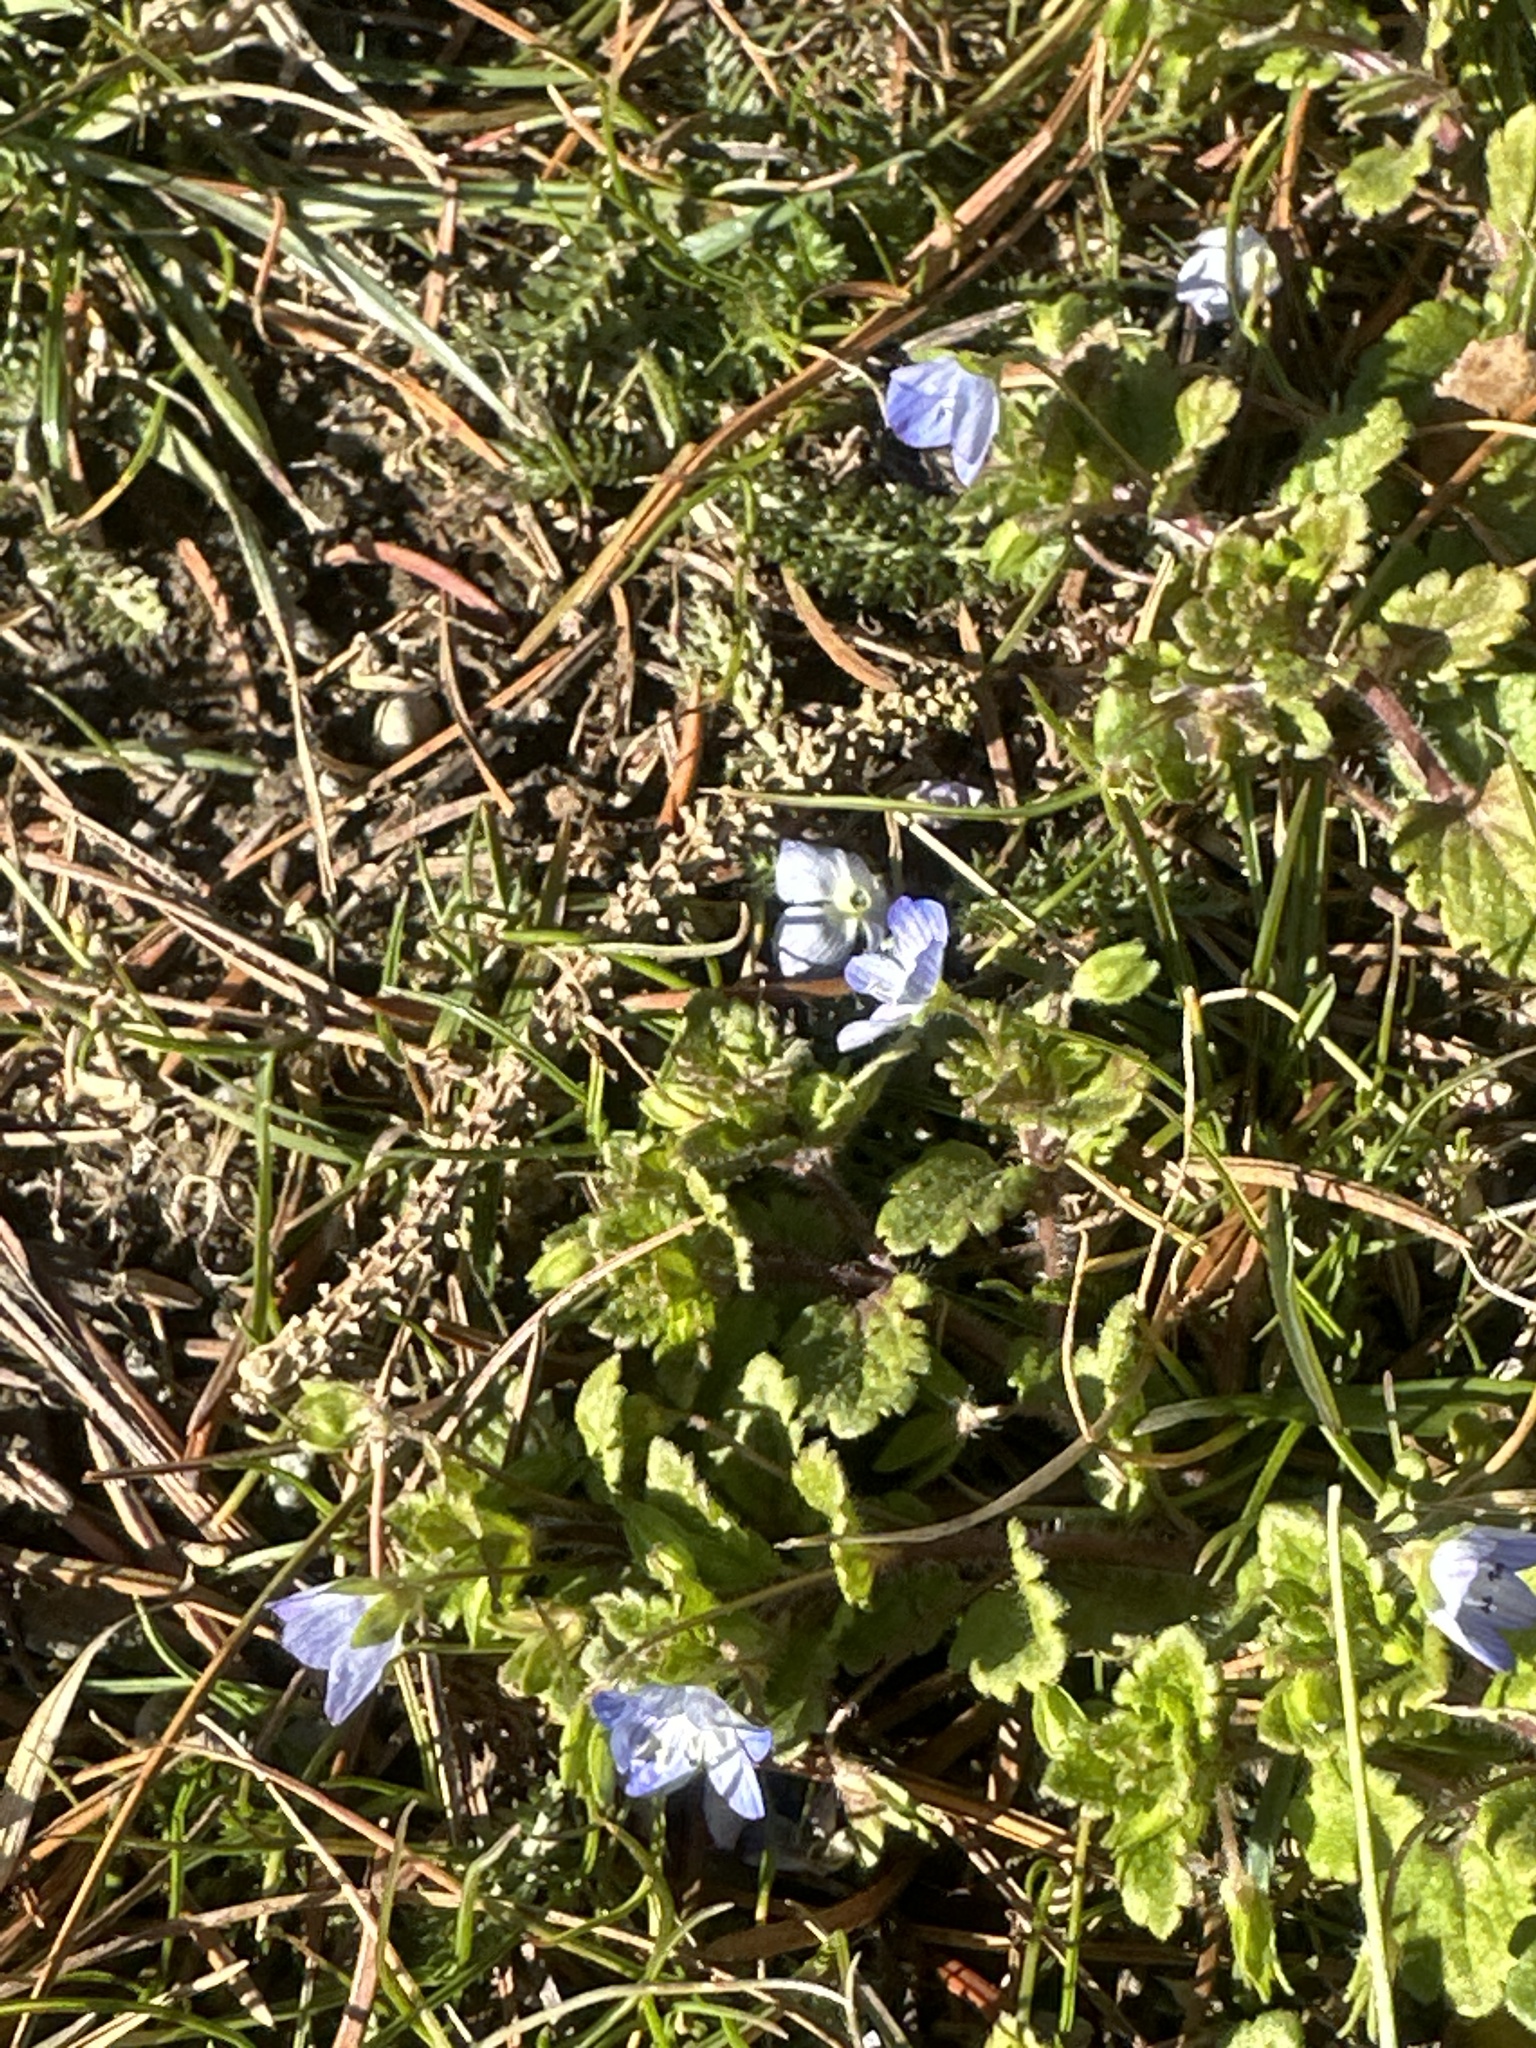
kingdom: Plantae
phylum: Tracheophyta
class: Magnoliopsida
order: Lamiales
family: Plantaginaceae
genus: Veronica
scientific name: Veronica persica
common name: Common field-speedwell
